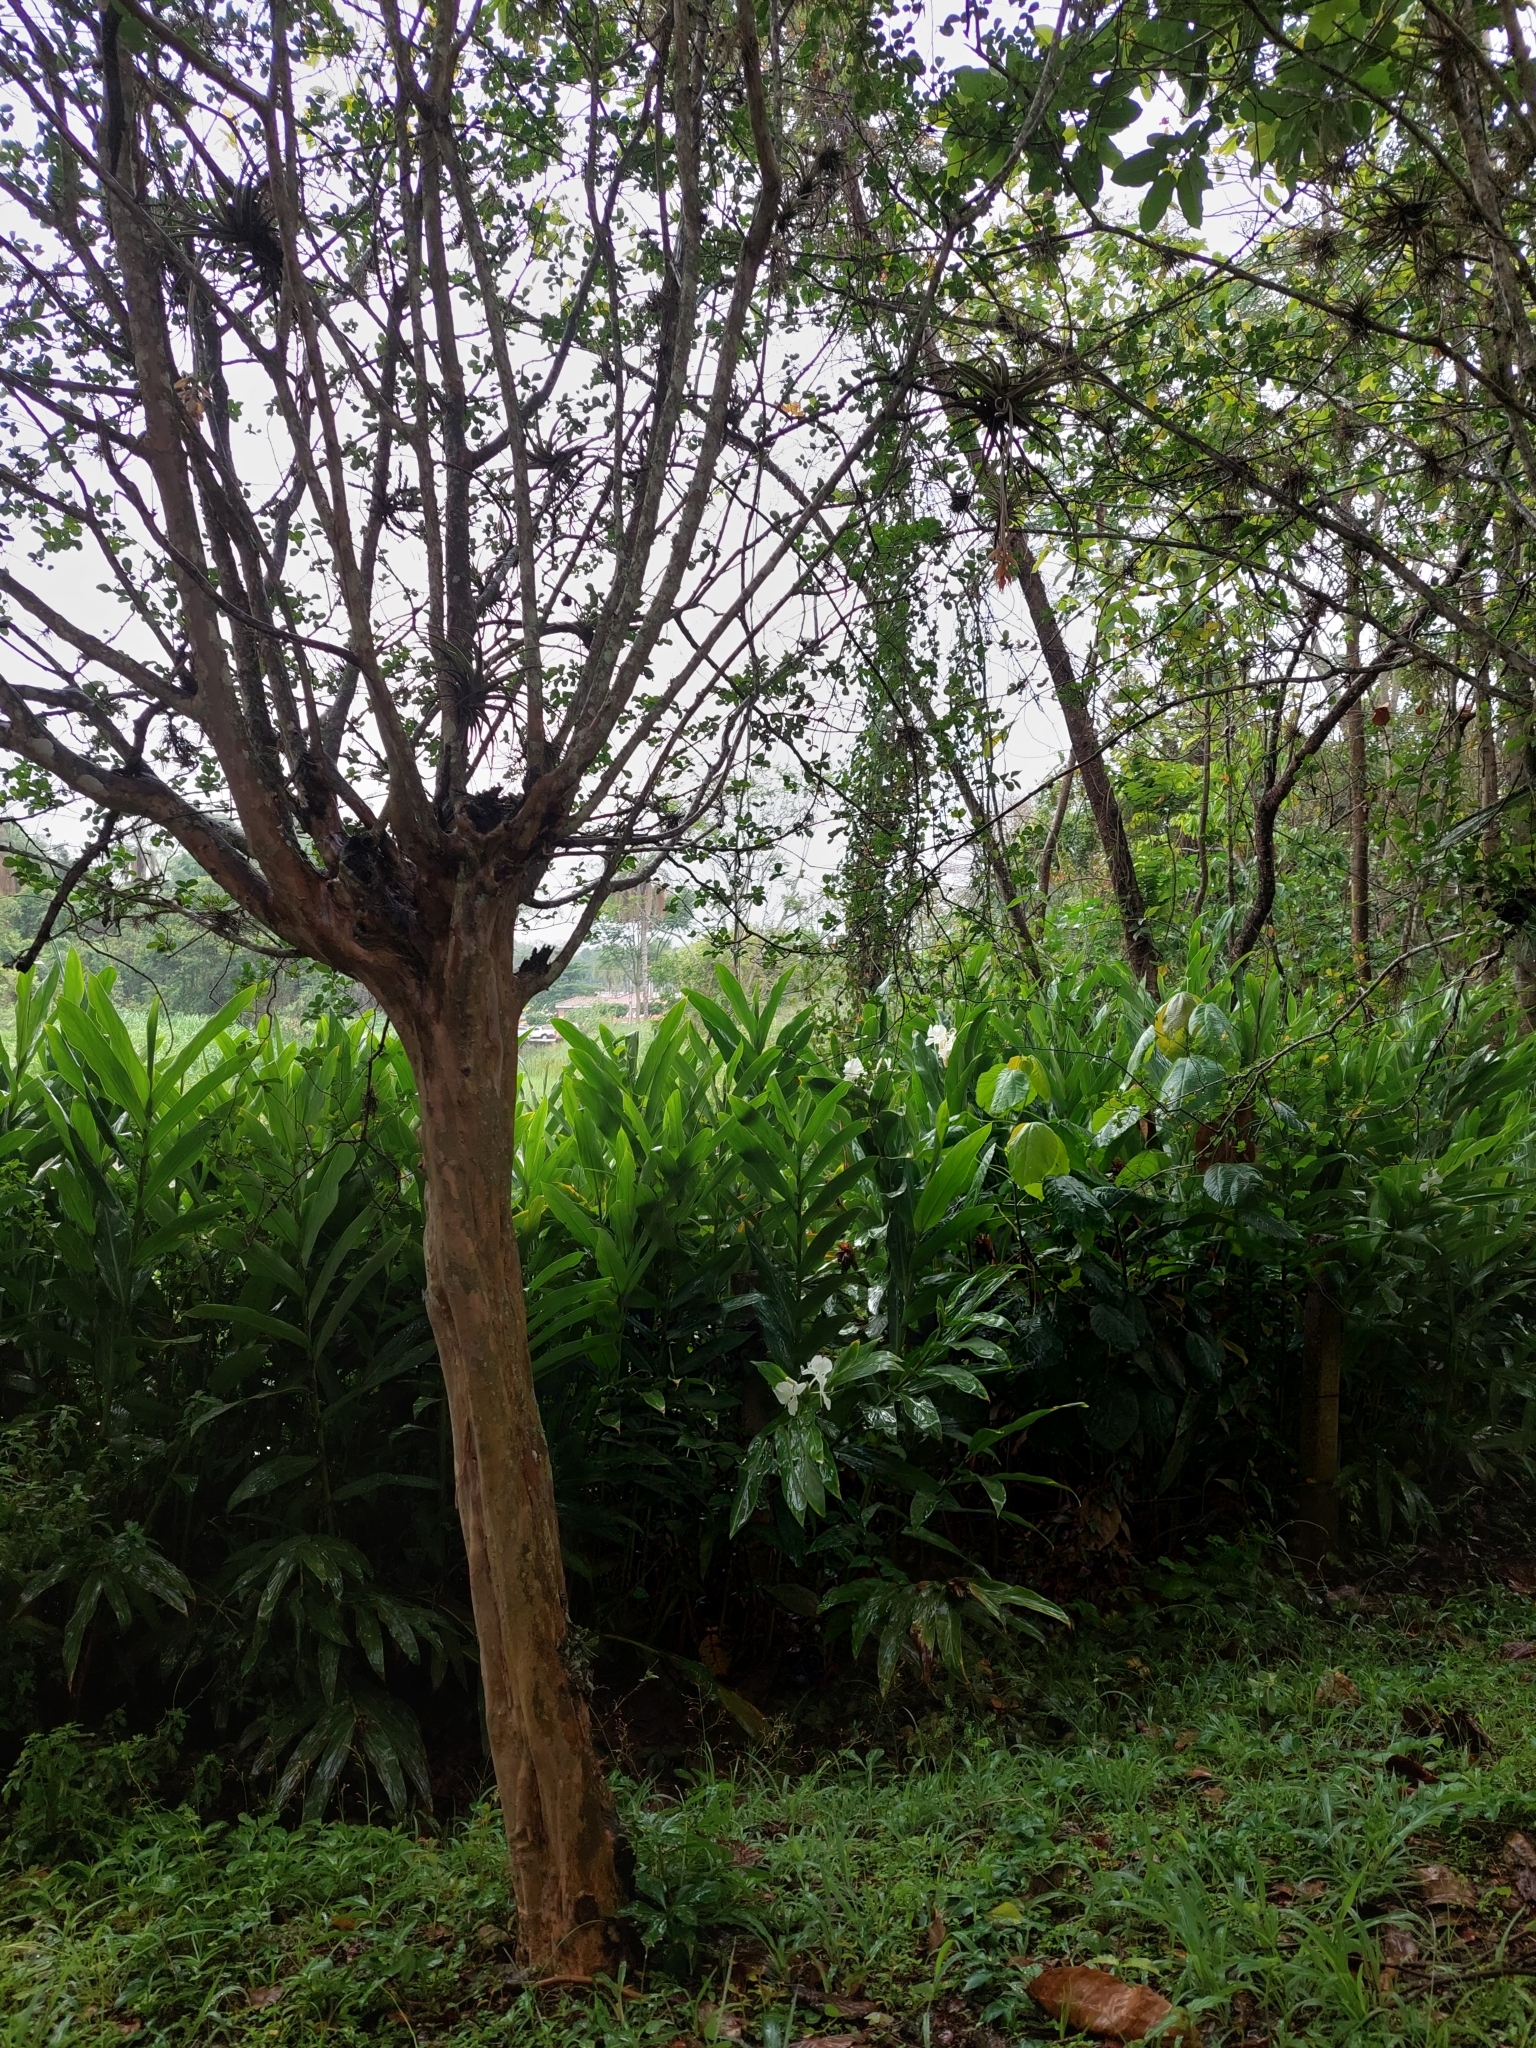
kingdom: Plantae
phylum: Tracheophyta
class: Liliopsida
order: Zingiberales
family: Zingiberaceae
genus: Hedychium
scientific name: Hedychium coronarium
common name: White garland-lily
